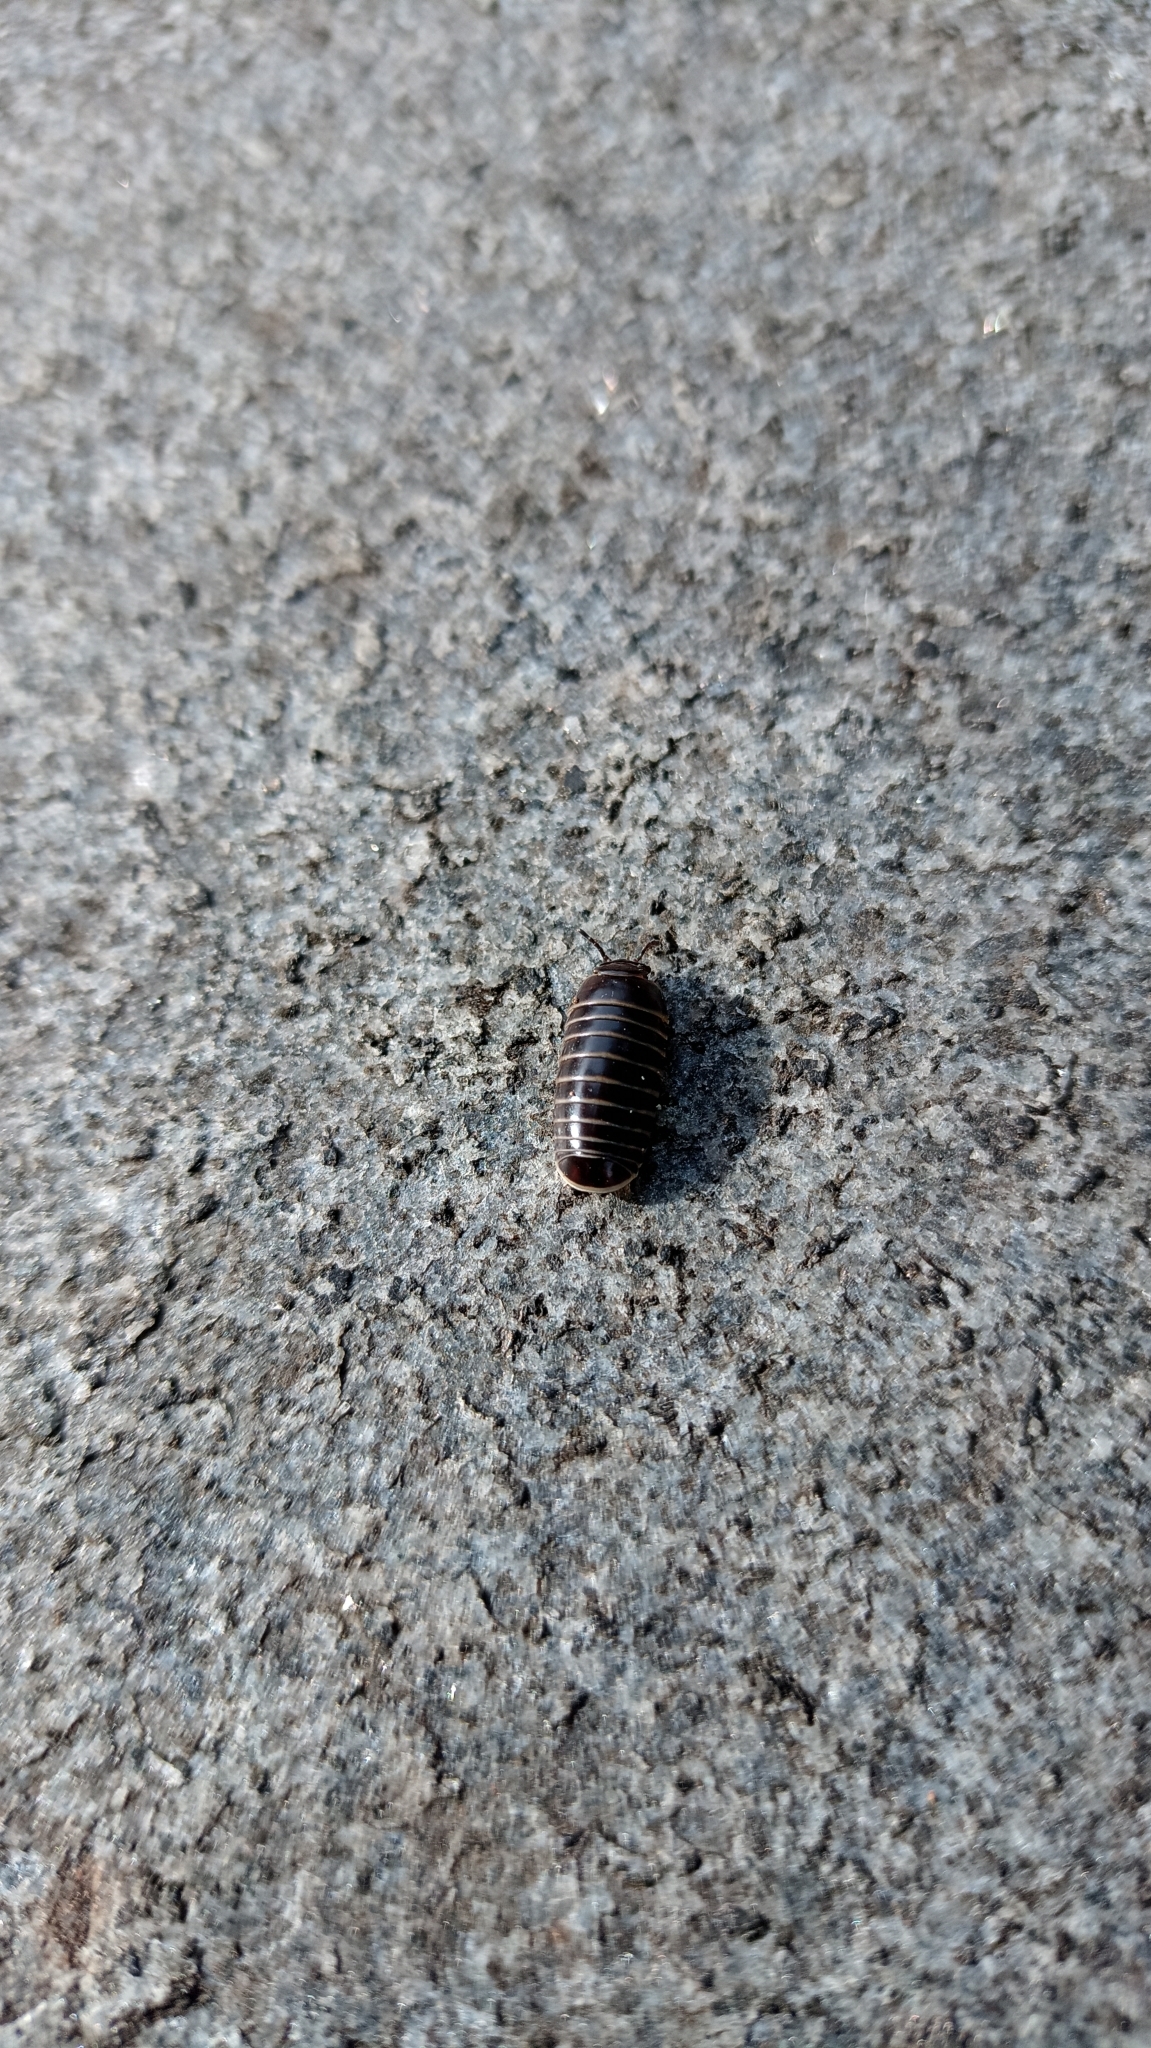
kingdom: Animalia
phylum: Arthropoda
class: Diplopoda
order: Glomerida
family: Glomeridae
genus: Glomeris
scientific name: Glomeris marginata
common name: Bordered pill millipede
